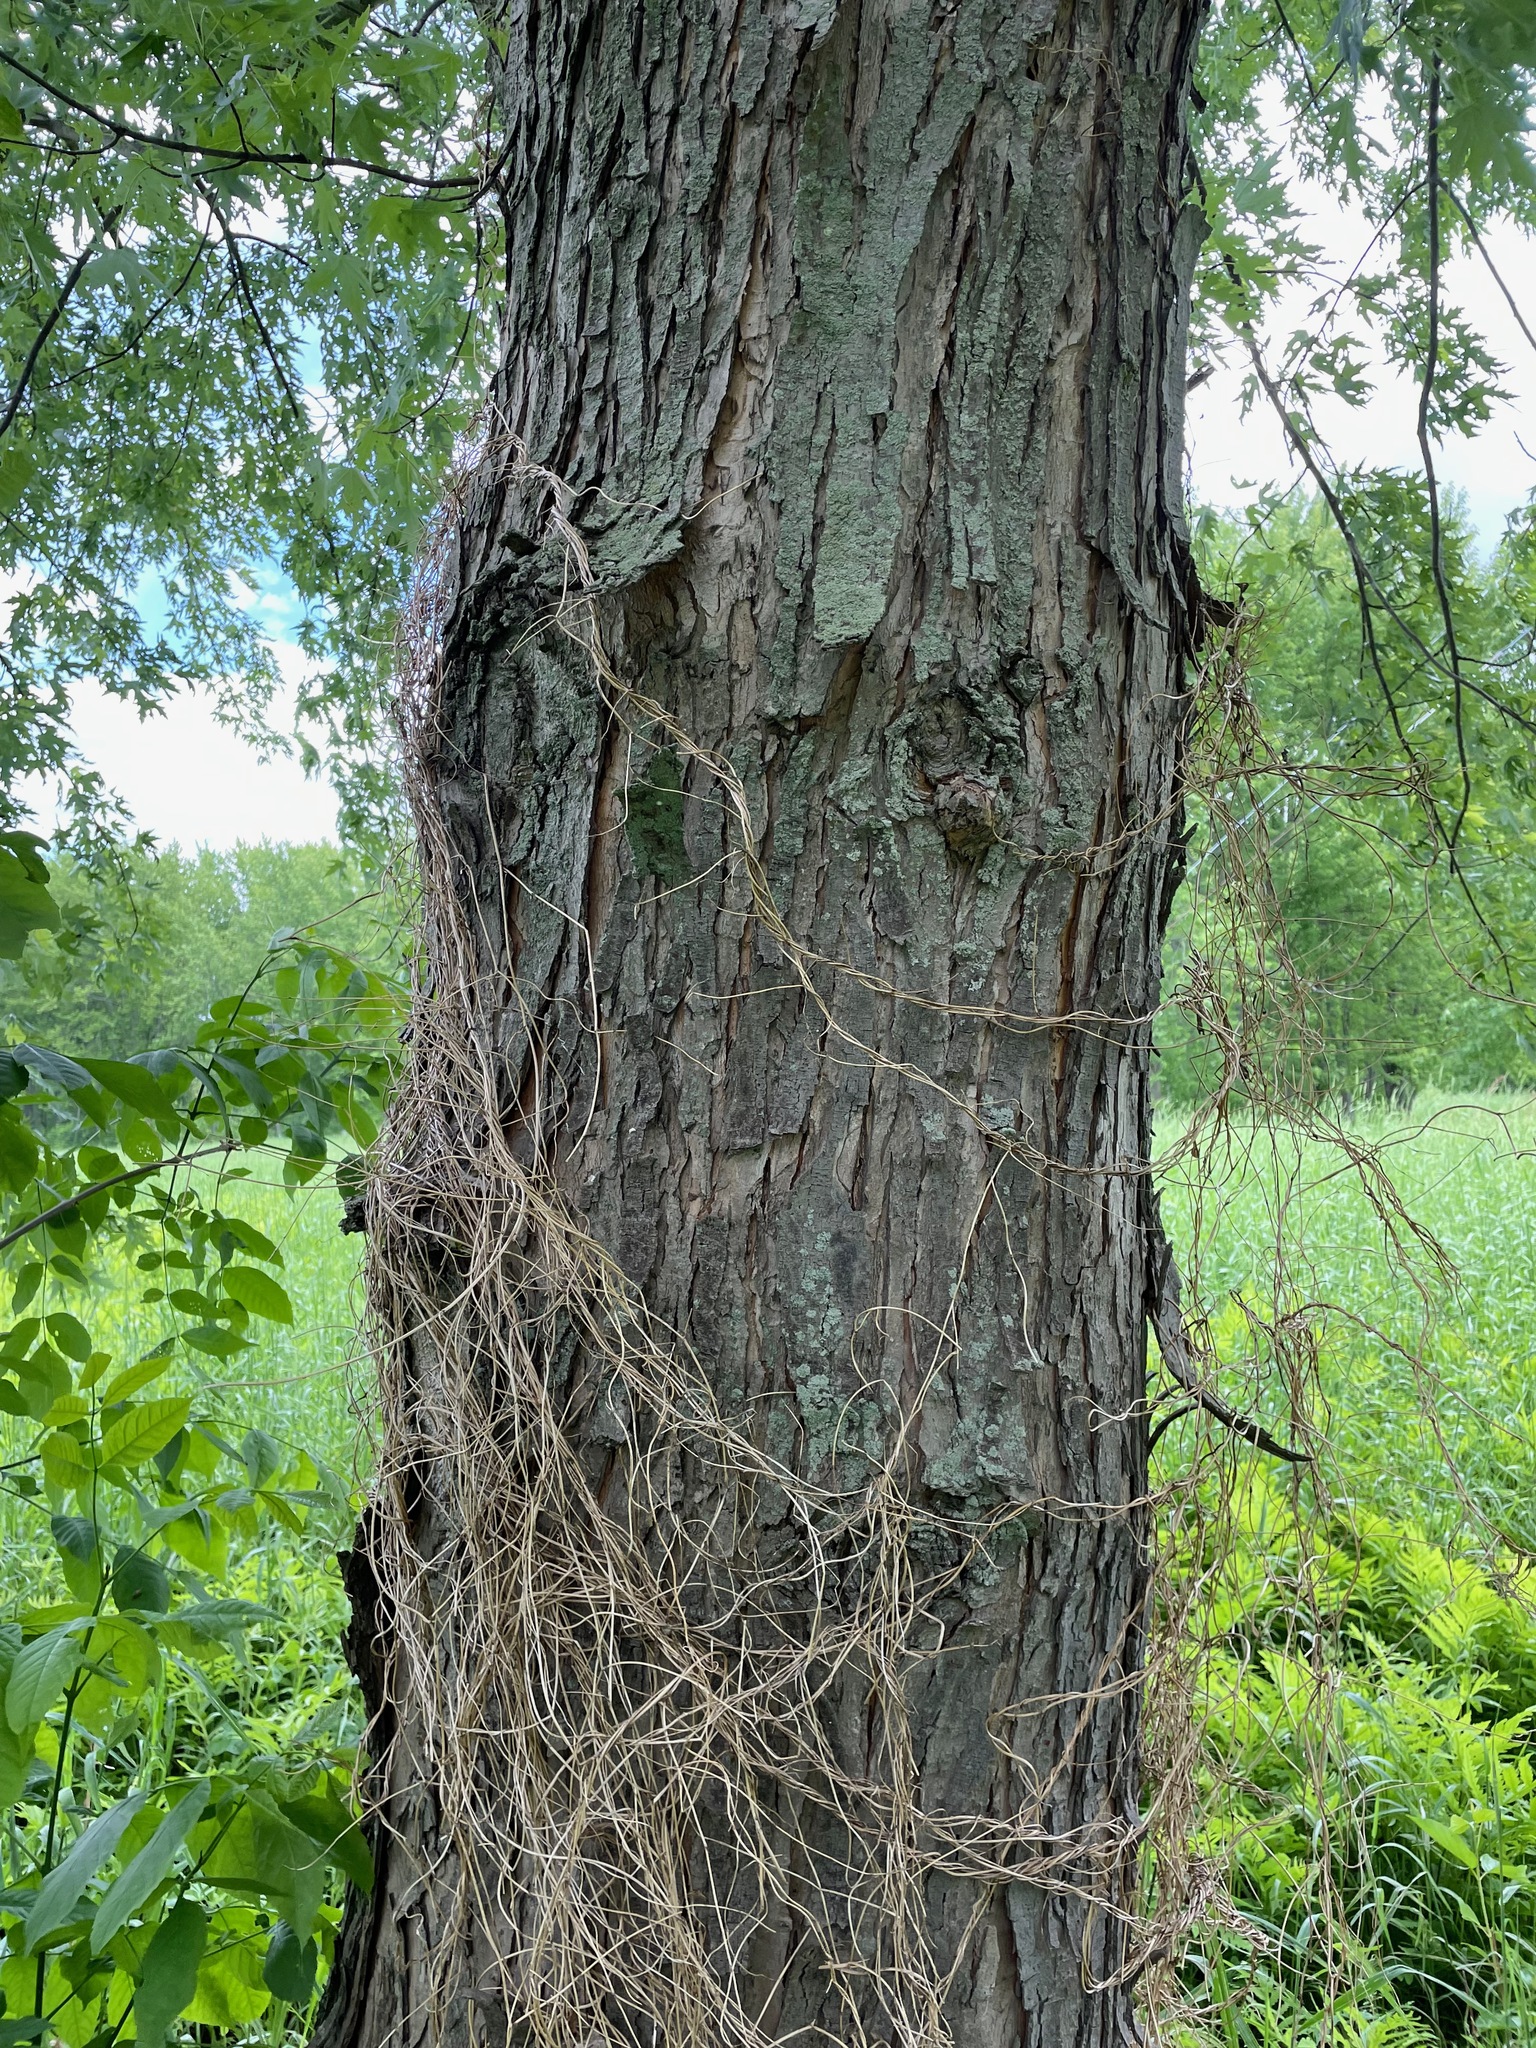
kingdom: Plantae
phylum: Tracheophyta
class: Magnoliopsida
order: Sapindales
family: Sapindaceae
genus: Acer
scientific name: Acer saccharinum
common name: Silver maple
